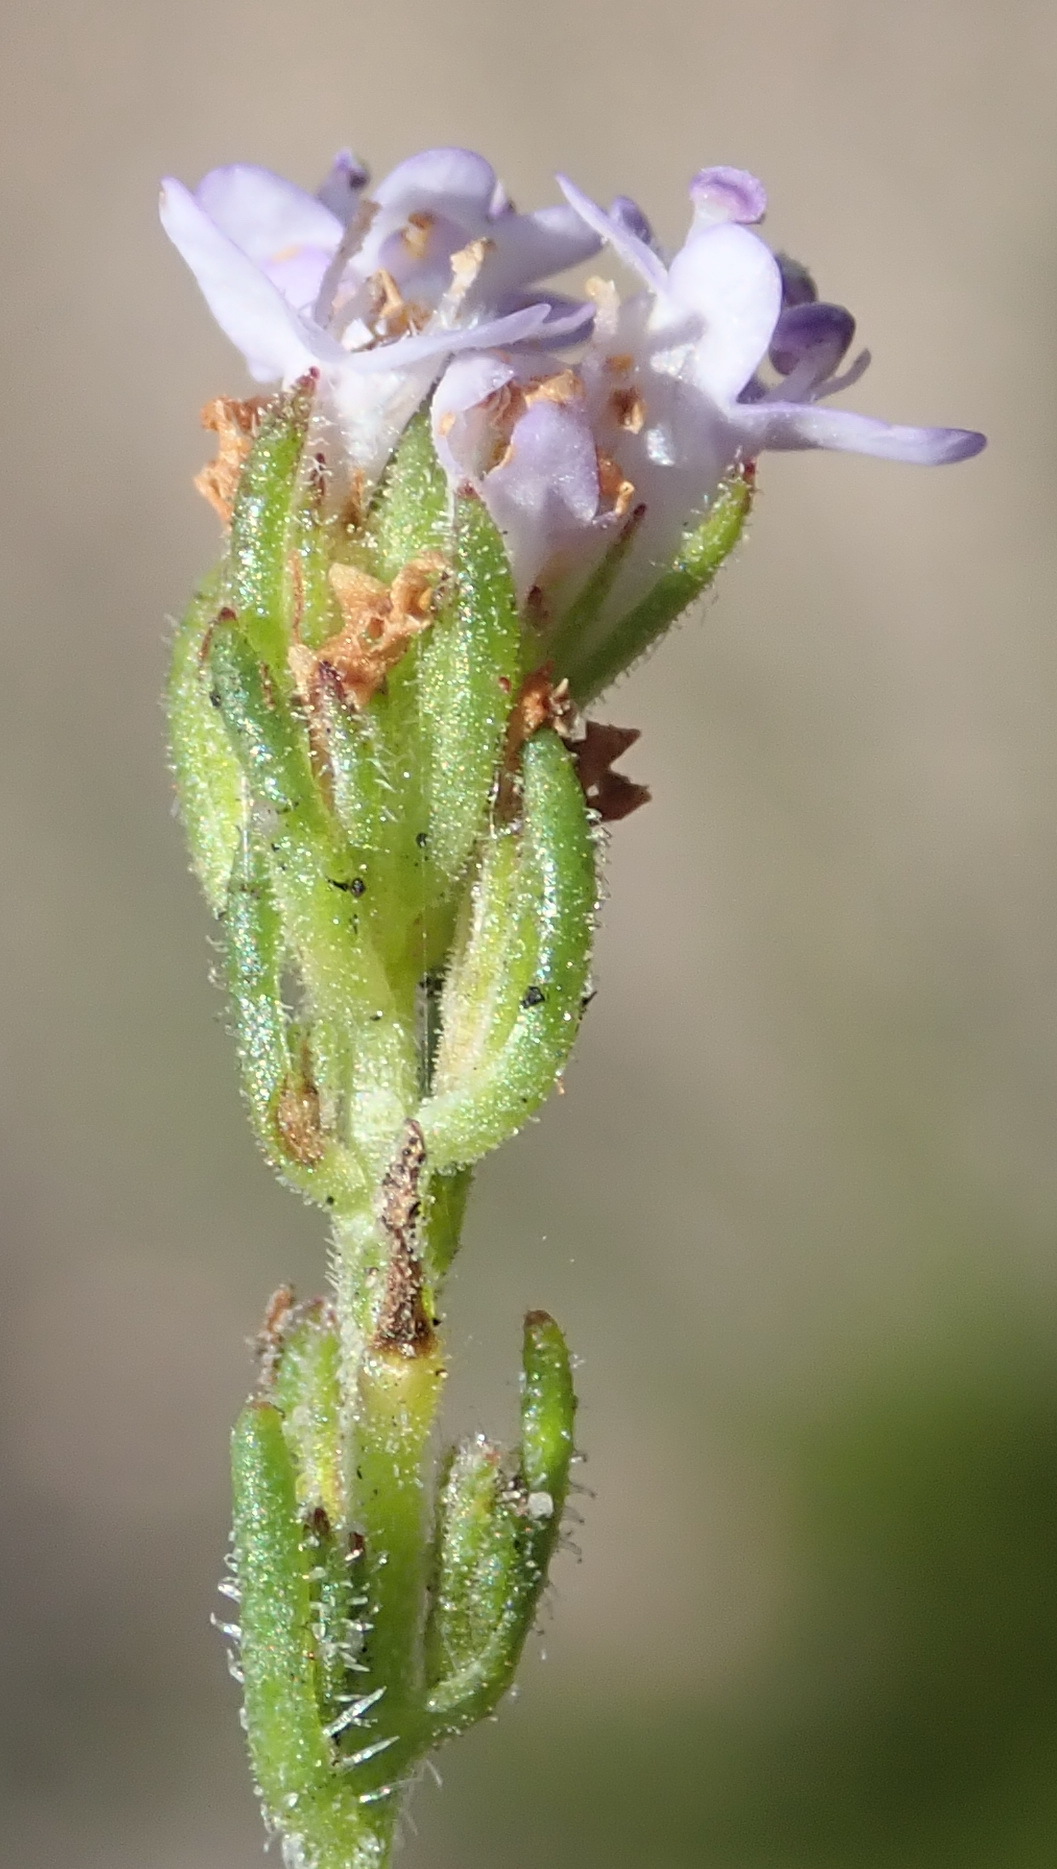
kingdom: Plantae
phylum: Tracheophyta
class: Magnoliopsida
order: Lamiales
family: Scrophulariaceae
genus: Pseudoselago
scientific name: Pseudoselago bella
